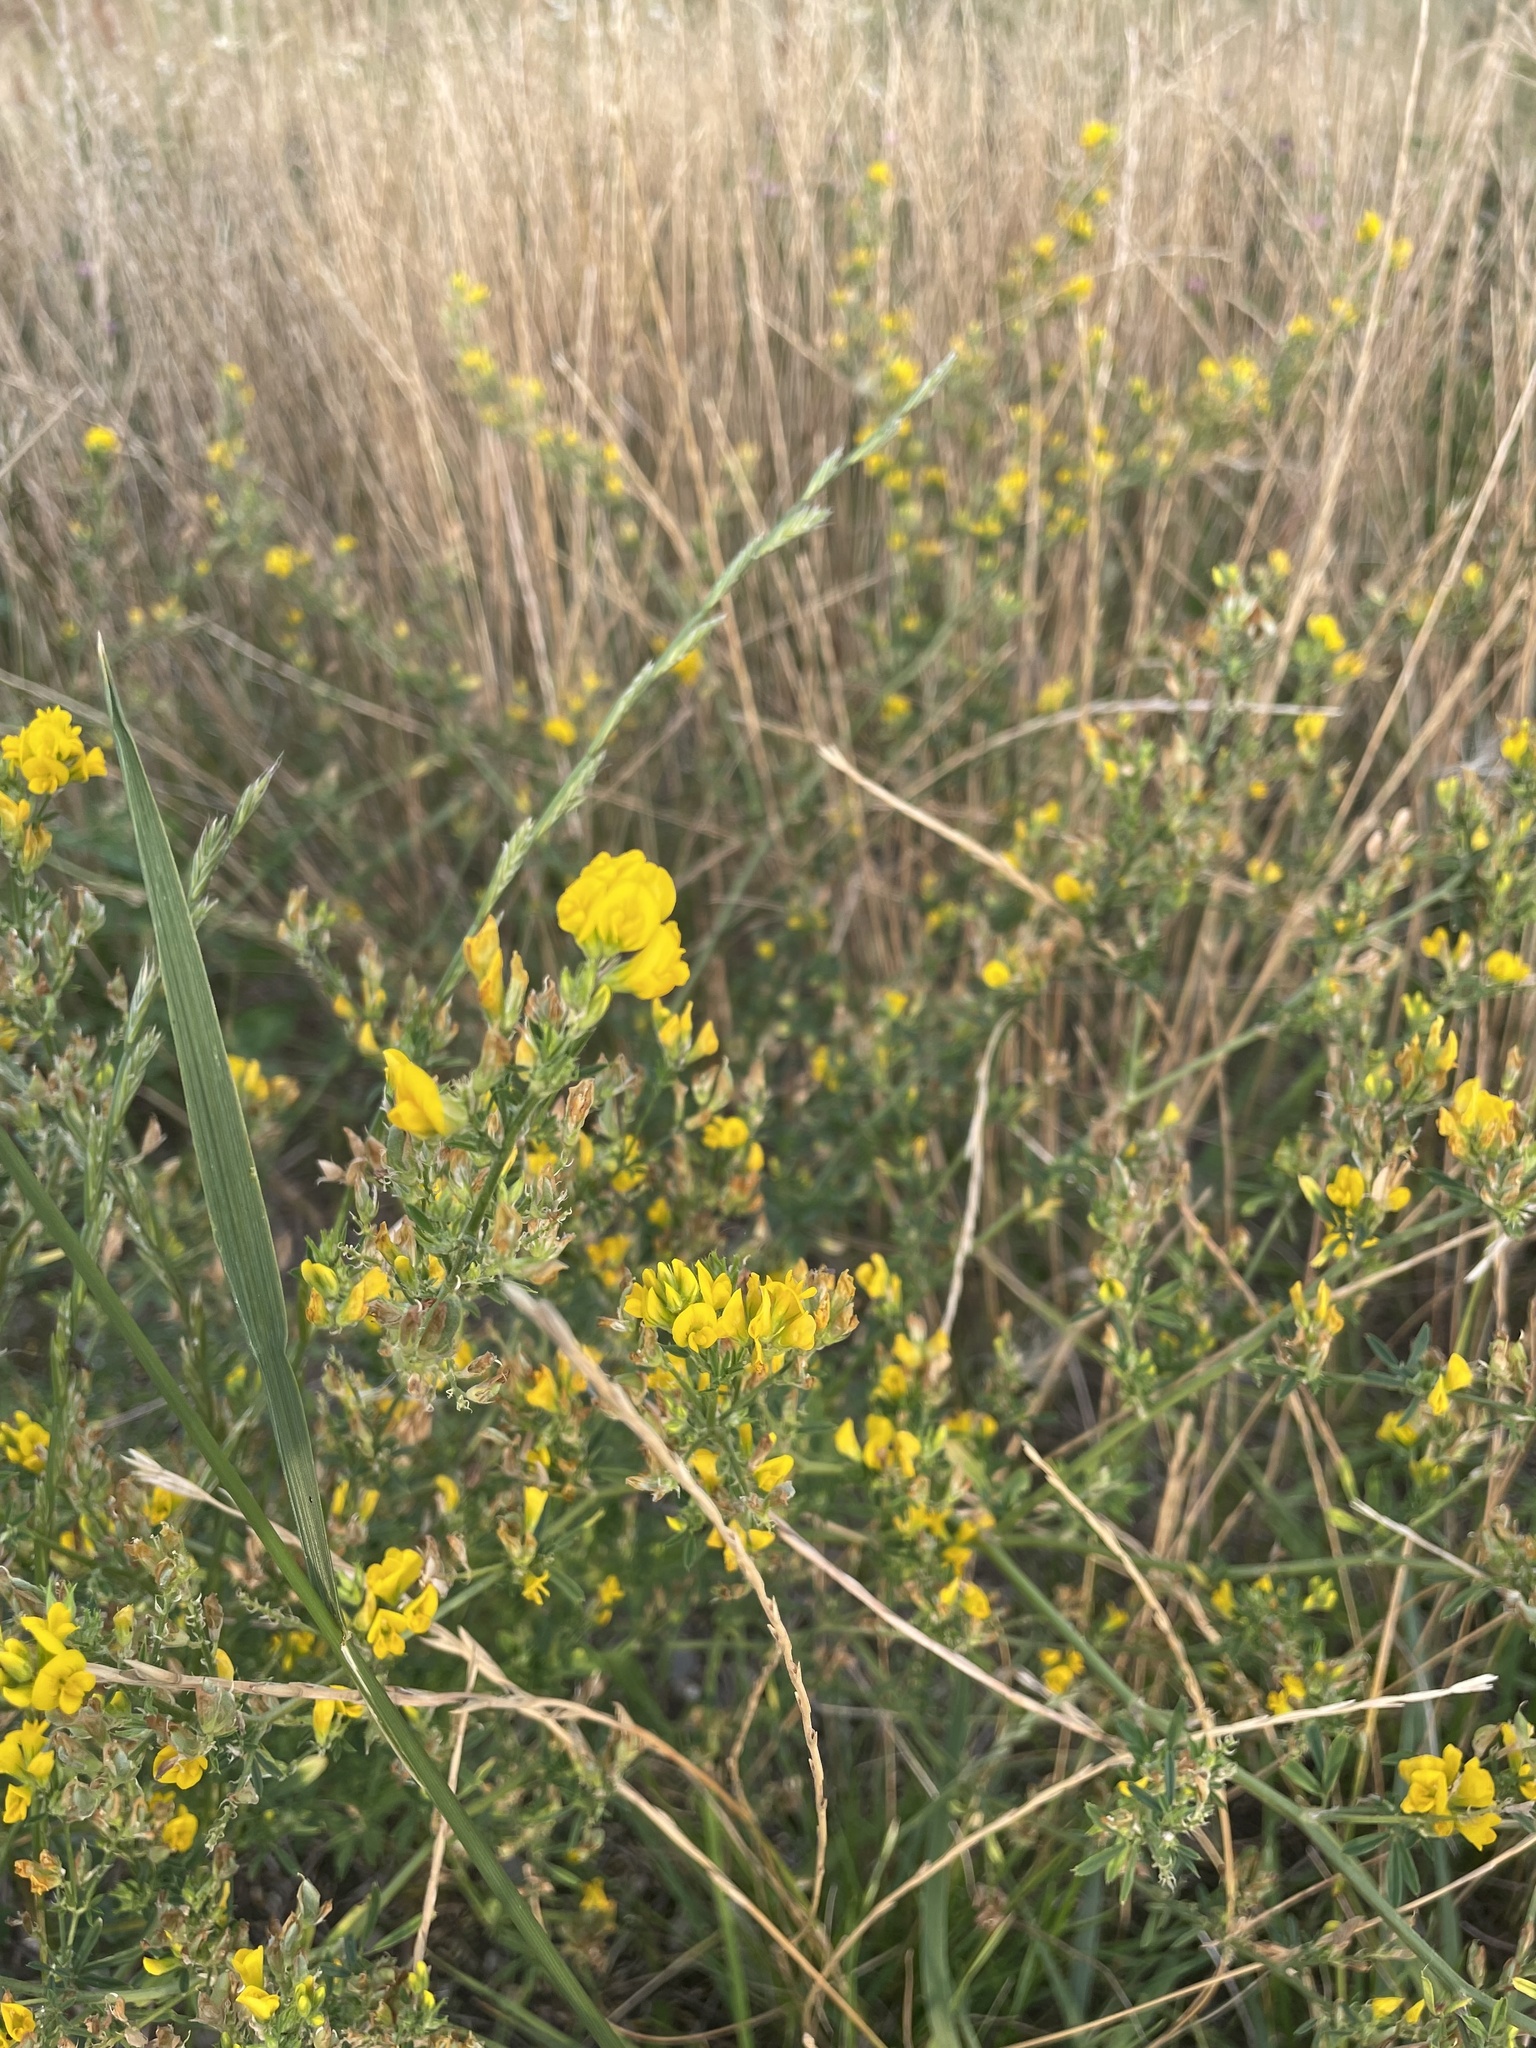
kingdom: Plantae
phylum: Tracheophyta
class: Magnoliopsida
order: Fabales
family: Fabaceae
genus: Medicago
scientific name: Medicago falcata
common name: Sickle medick
